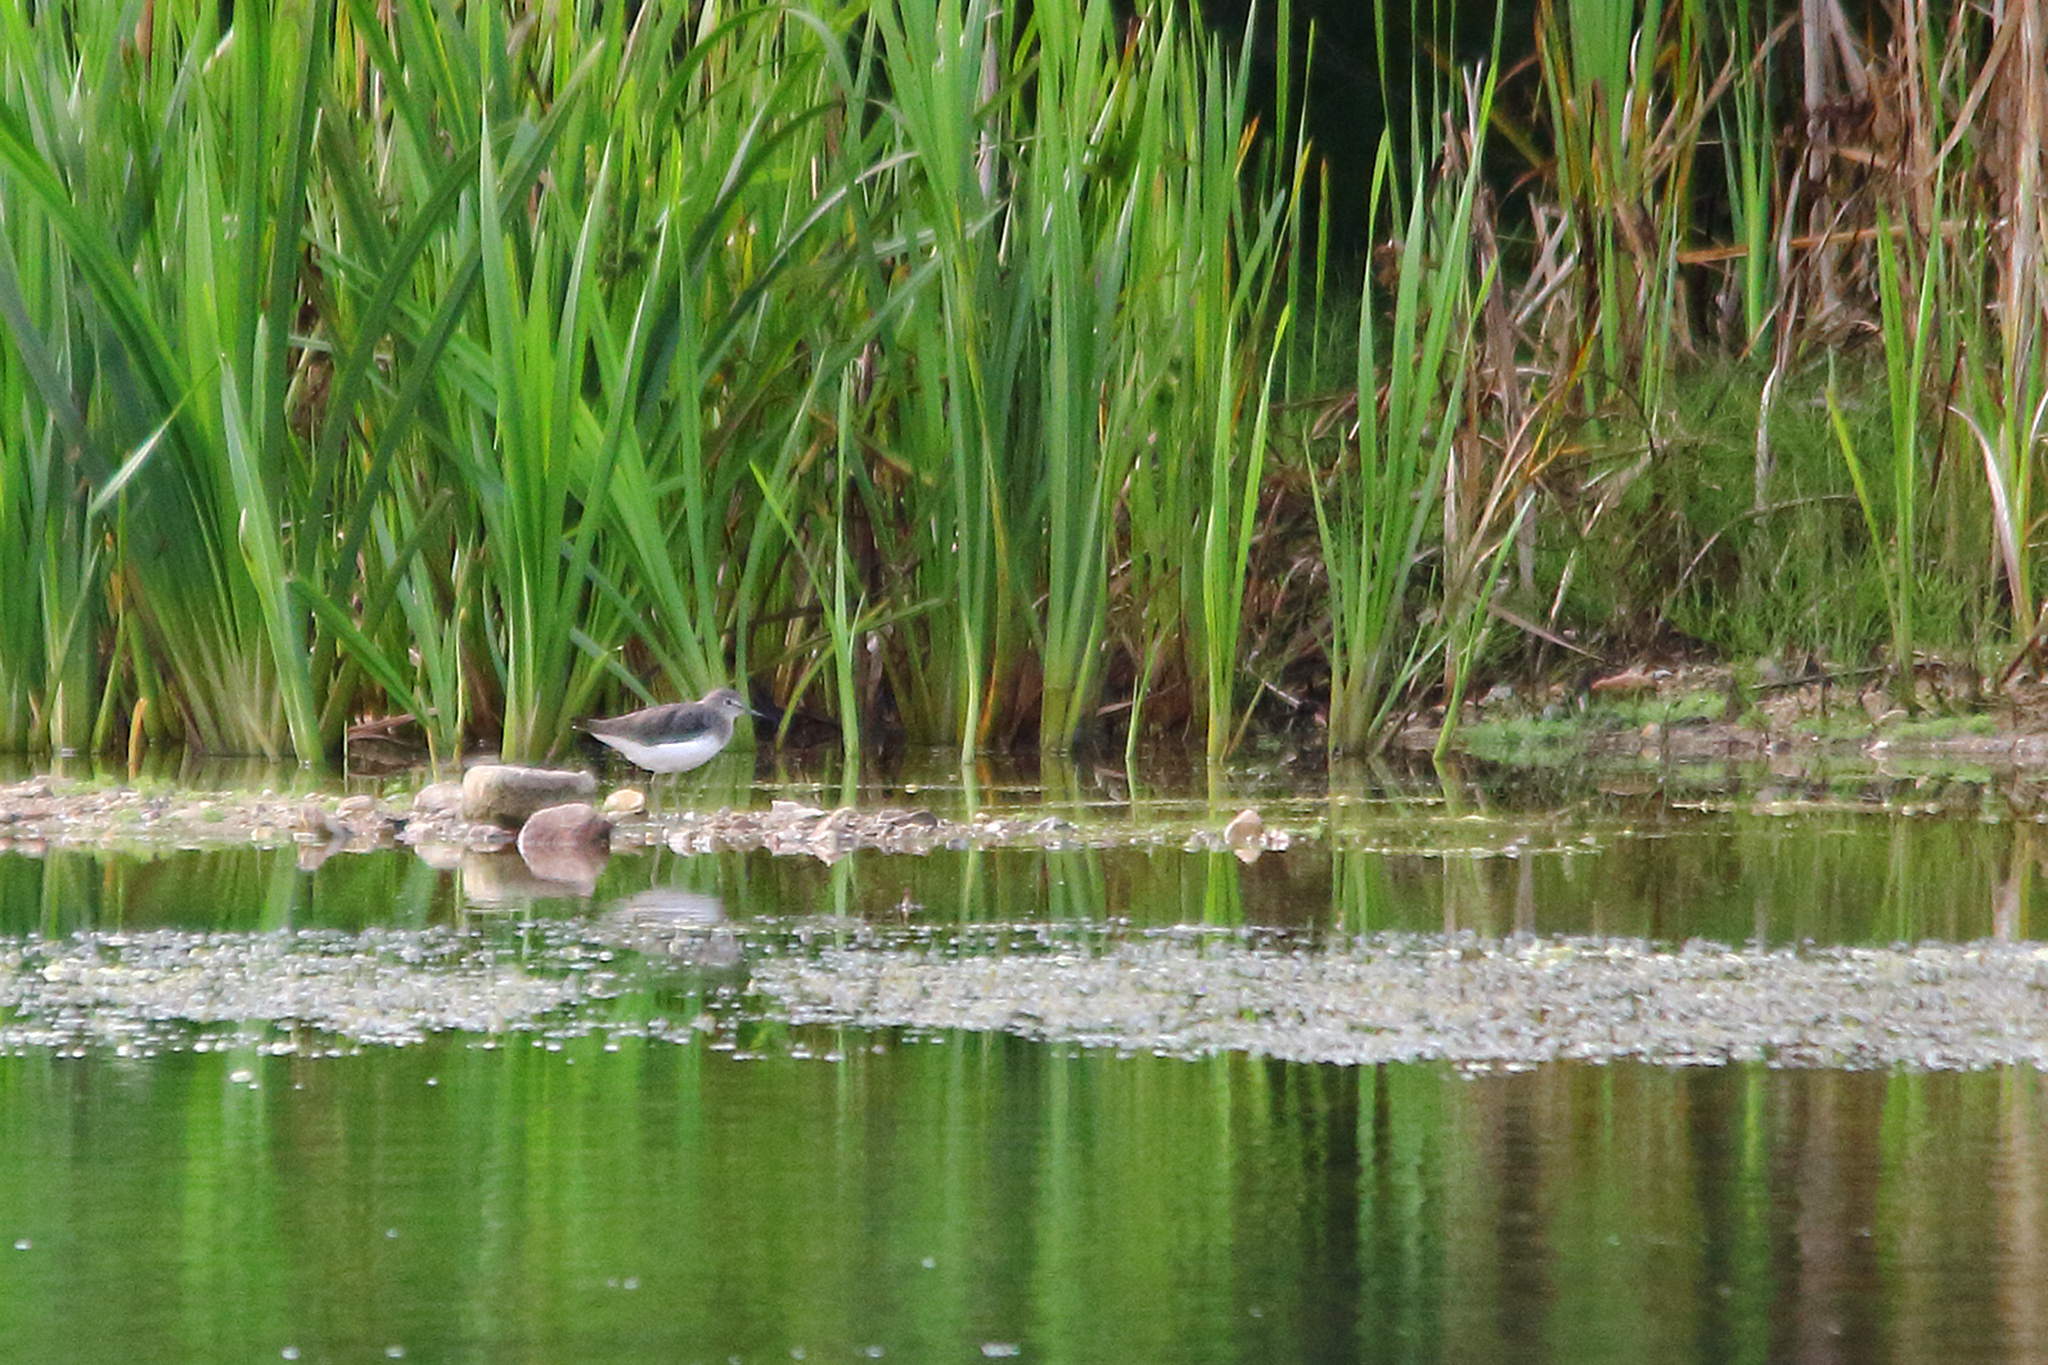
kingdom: Animalia
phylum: Chordata
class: Aves
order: Charadriiformes
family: Scolopacidae
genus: Tringa
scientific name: Tringa ochropus
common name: Green sandpiper
